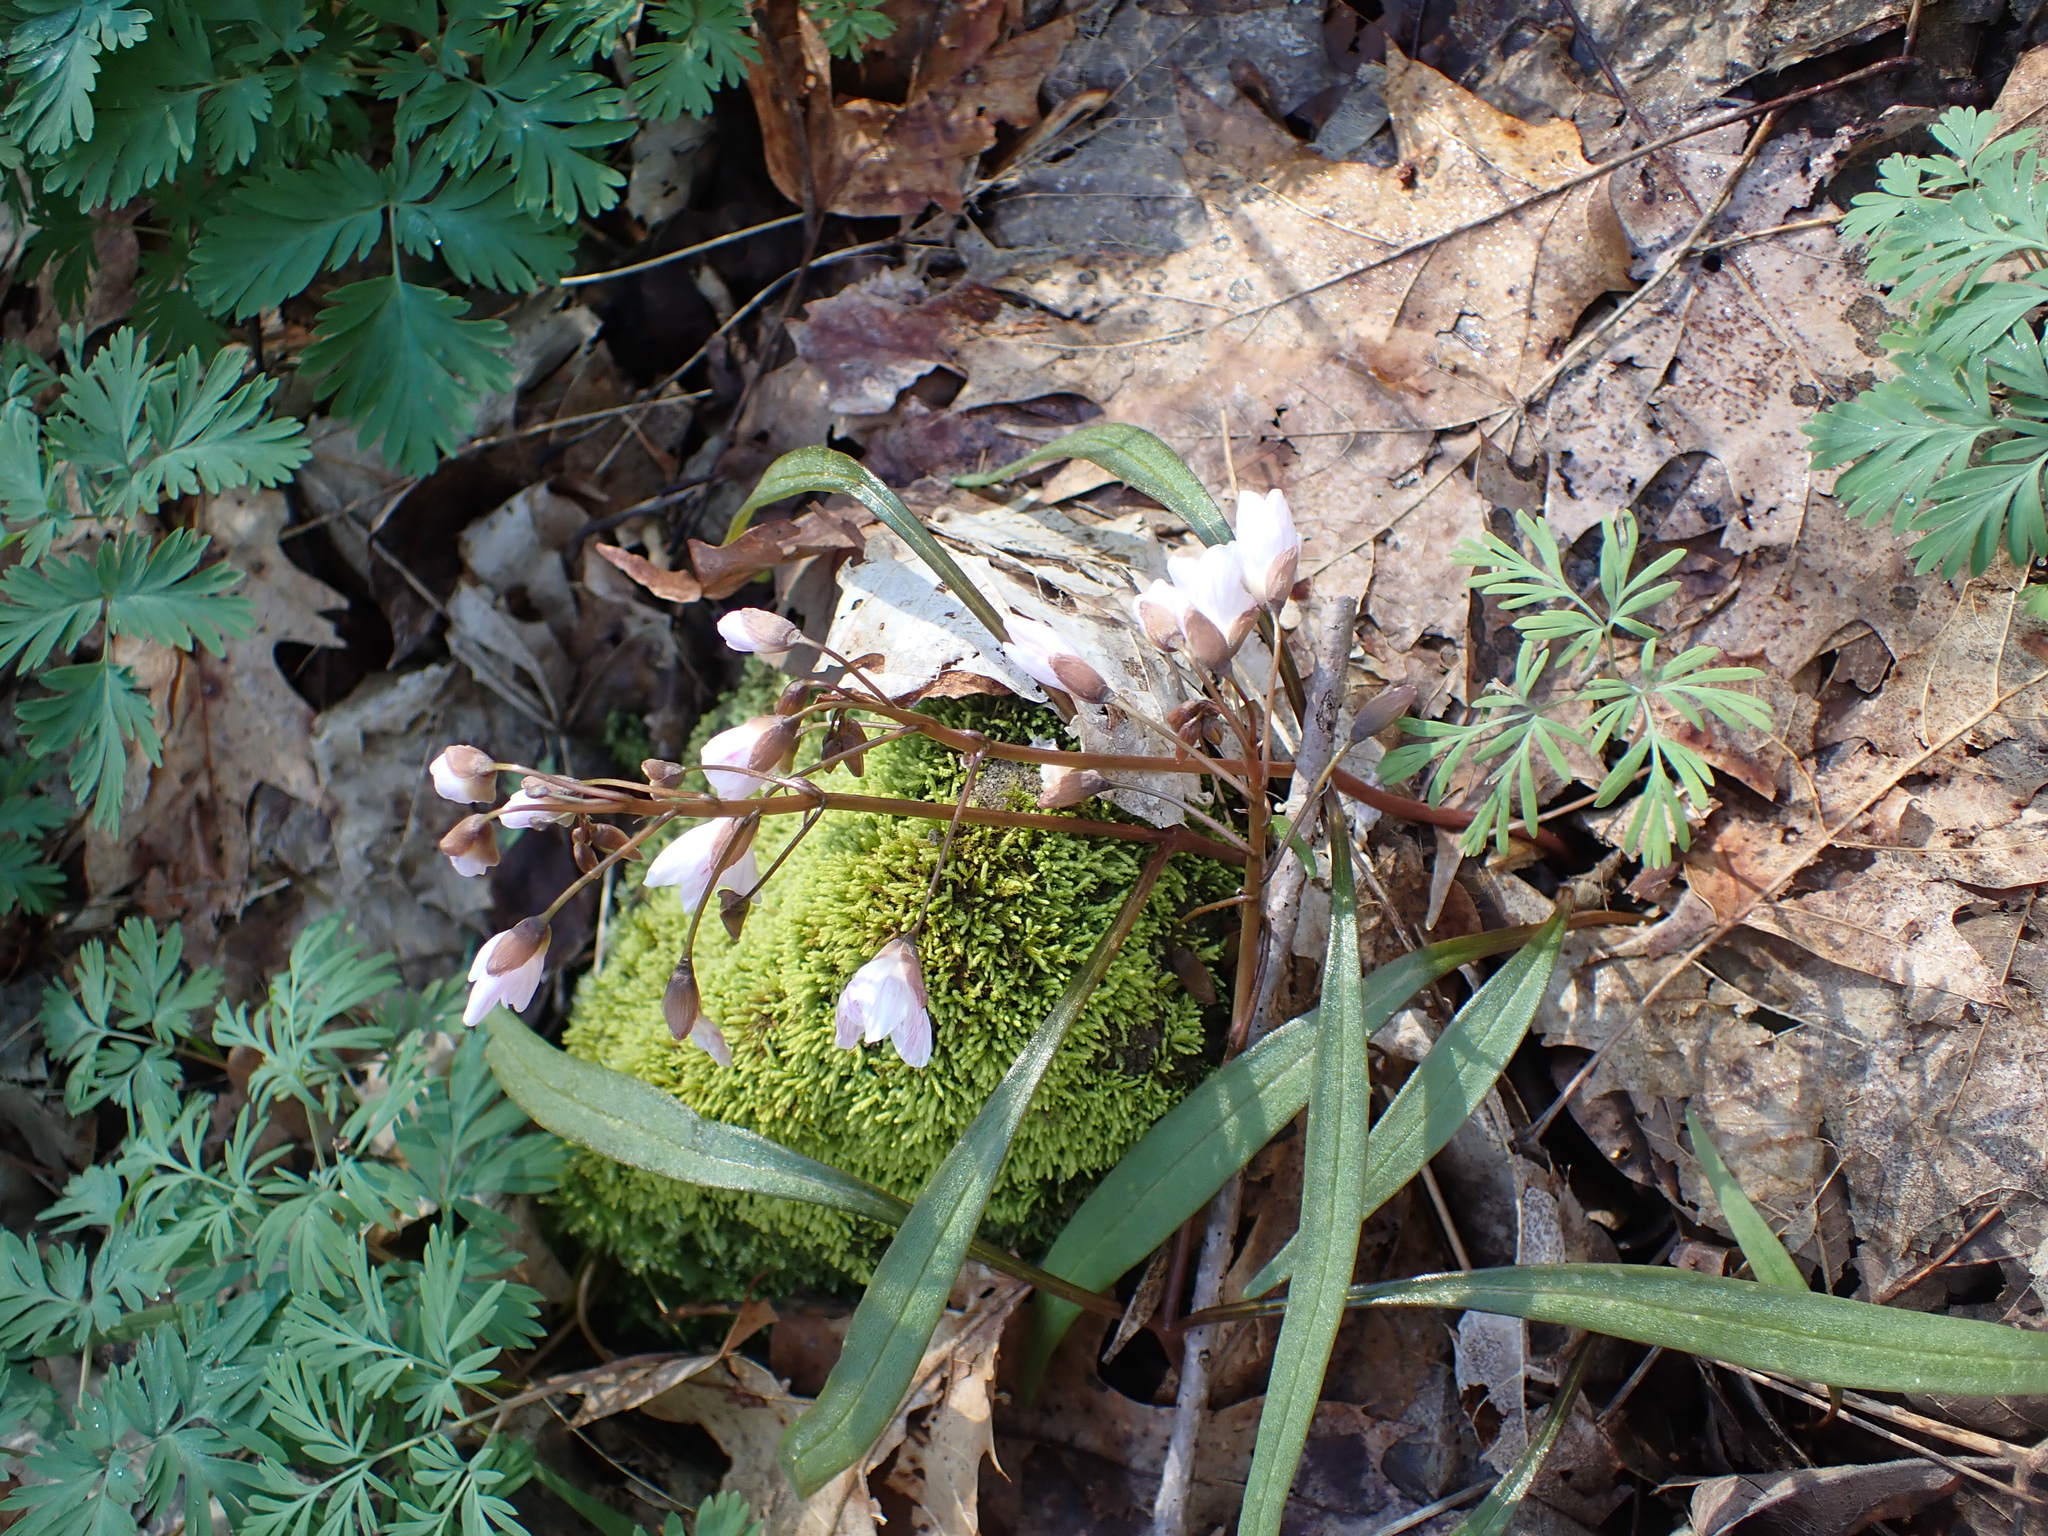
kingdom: Plantae
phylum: Tracheophyta
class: Magnoliopsida
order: Caryophyllales
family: Montiaceae
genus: Claytonia
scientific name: Claytonia virginica
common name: Virginia springbeauty
